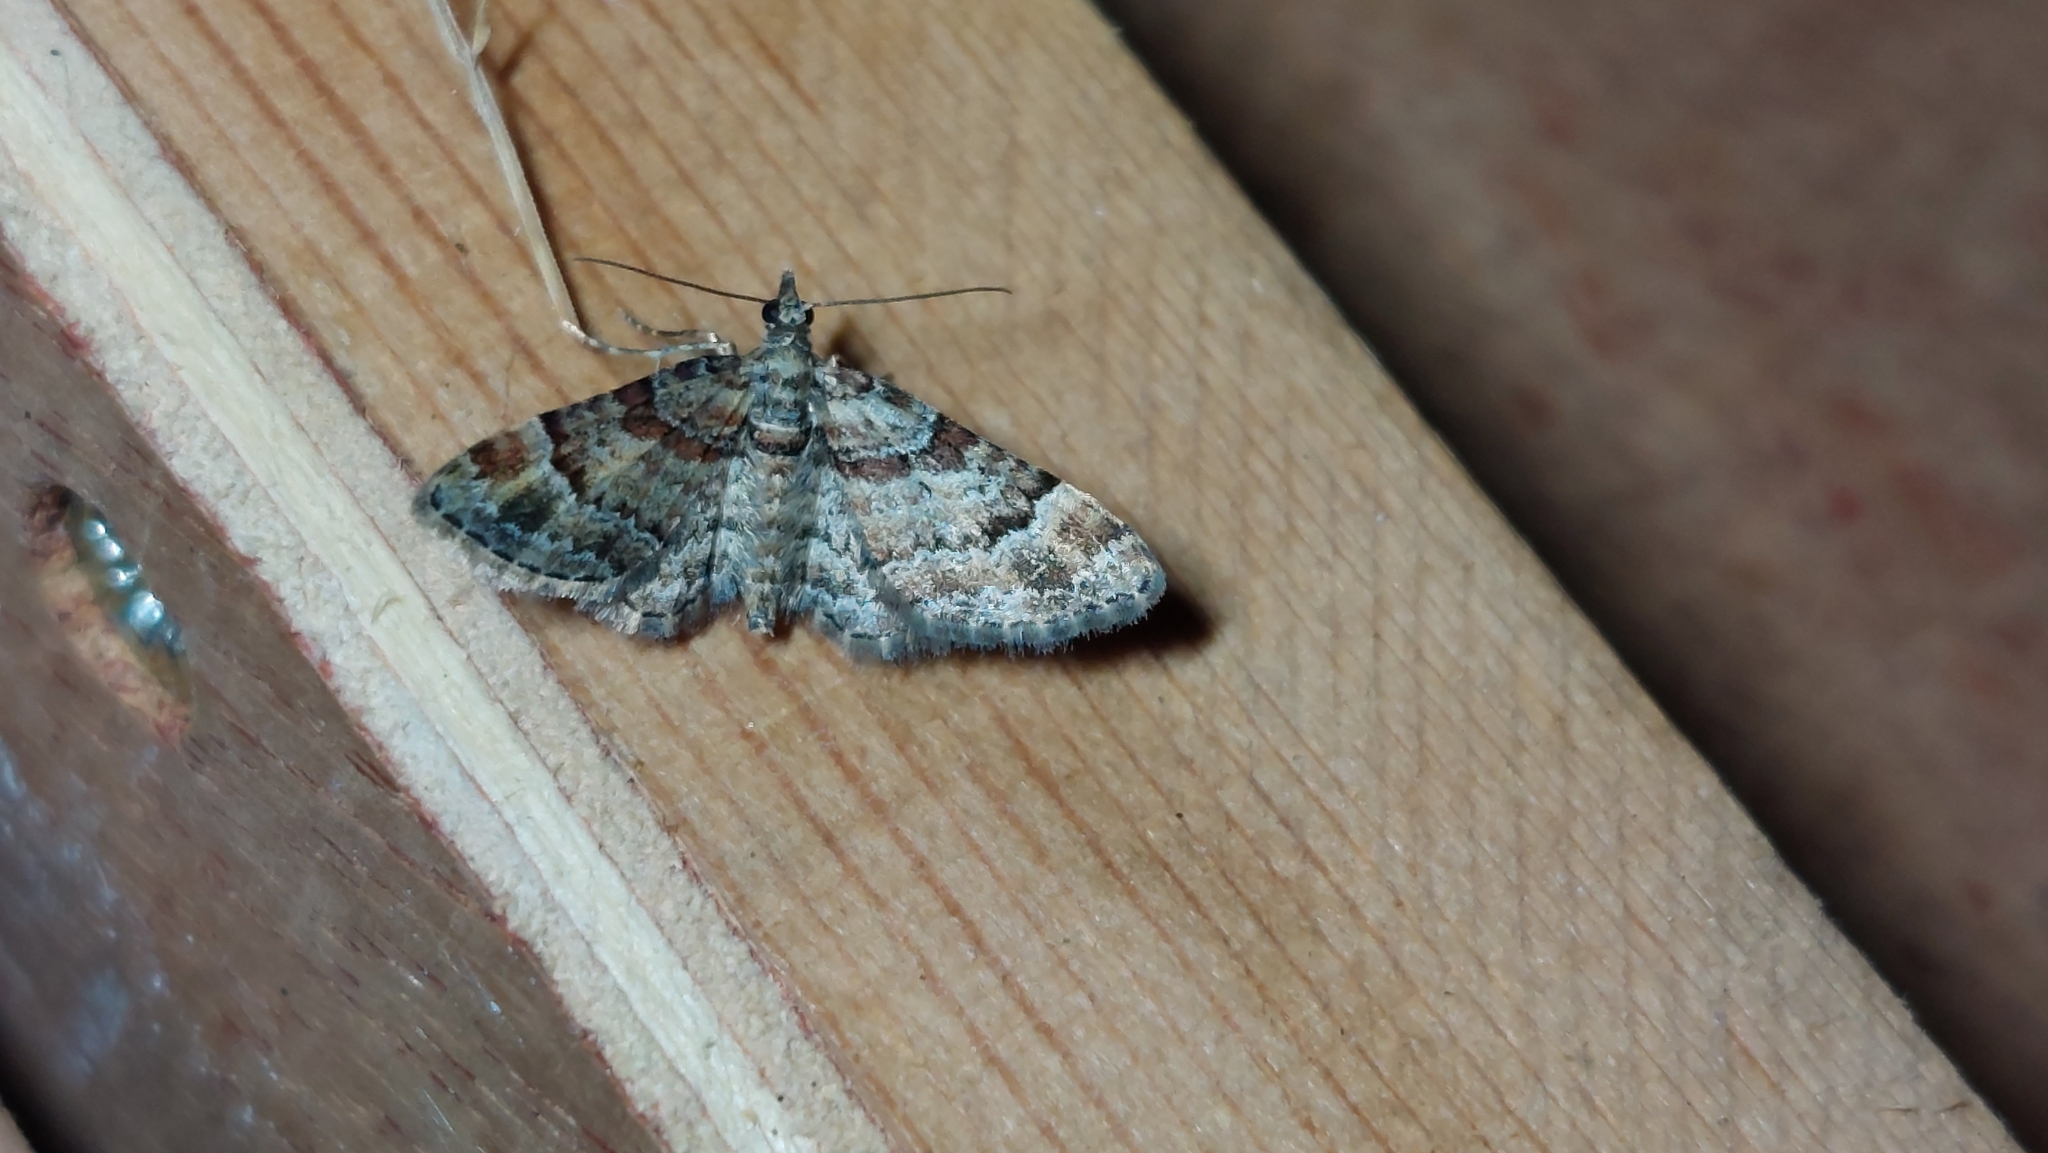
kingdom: Animalia
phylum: Arthropoda
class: Insecta
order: Lepidoptera
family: Geometridae
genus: Gymnoscelis
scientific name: Gymnoscelis rufifasciata
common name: Double-striped pug
